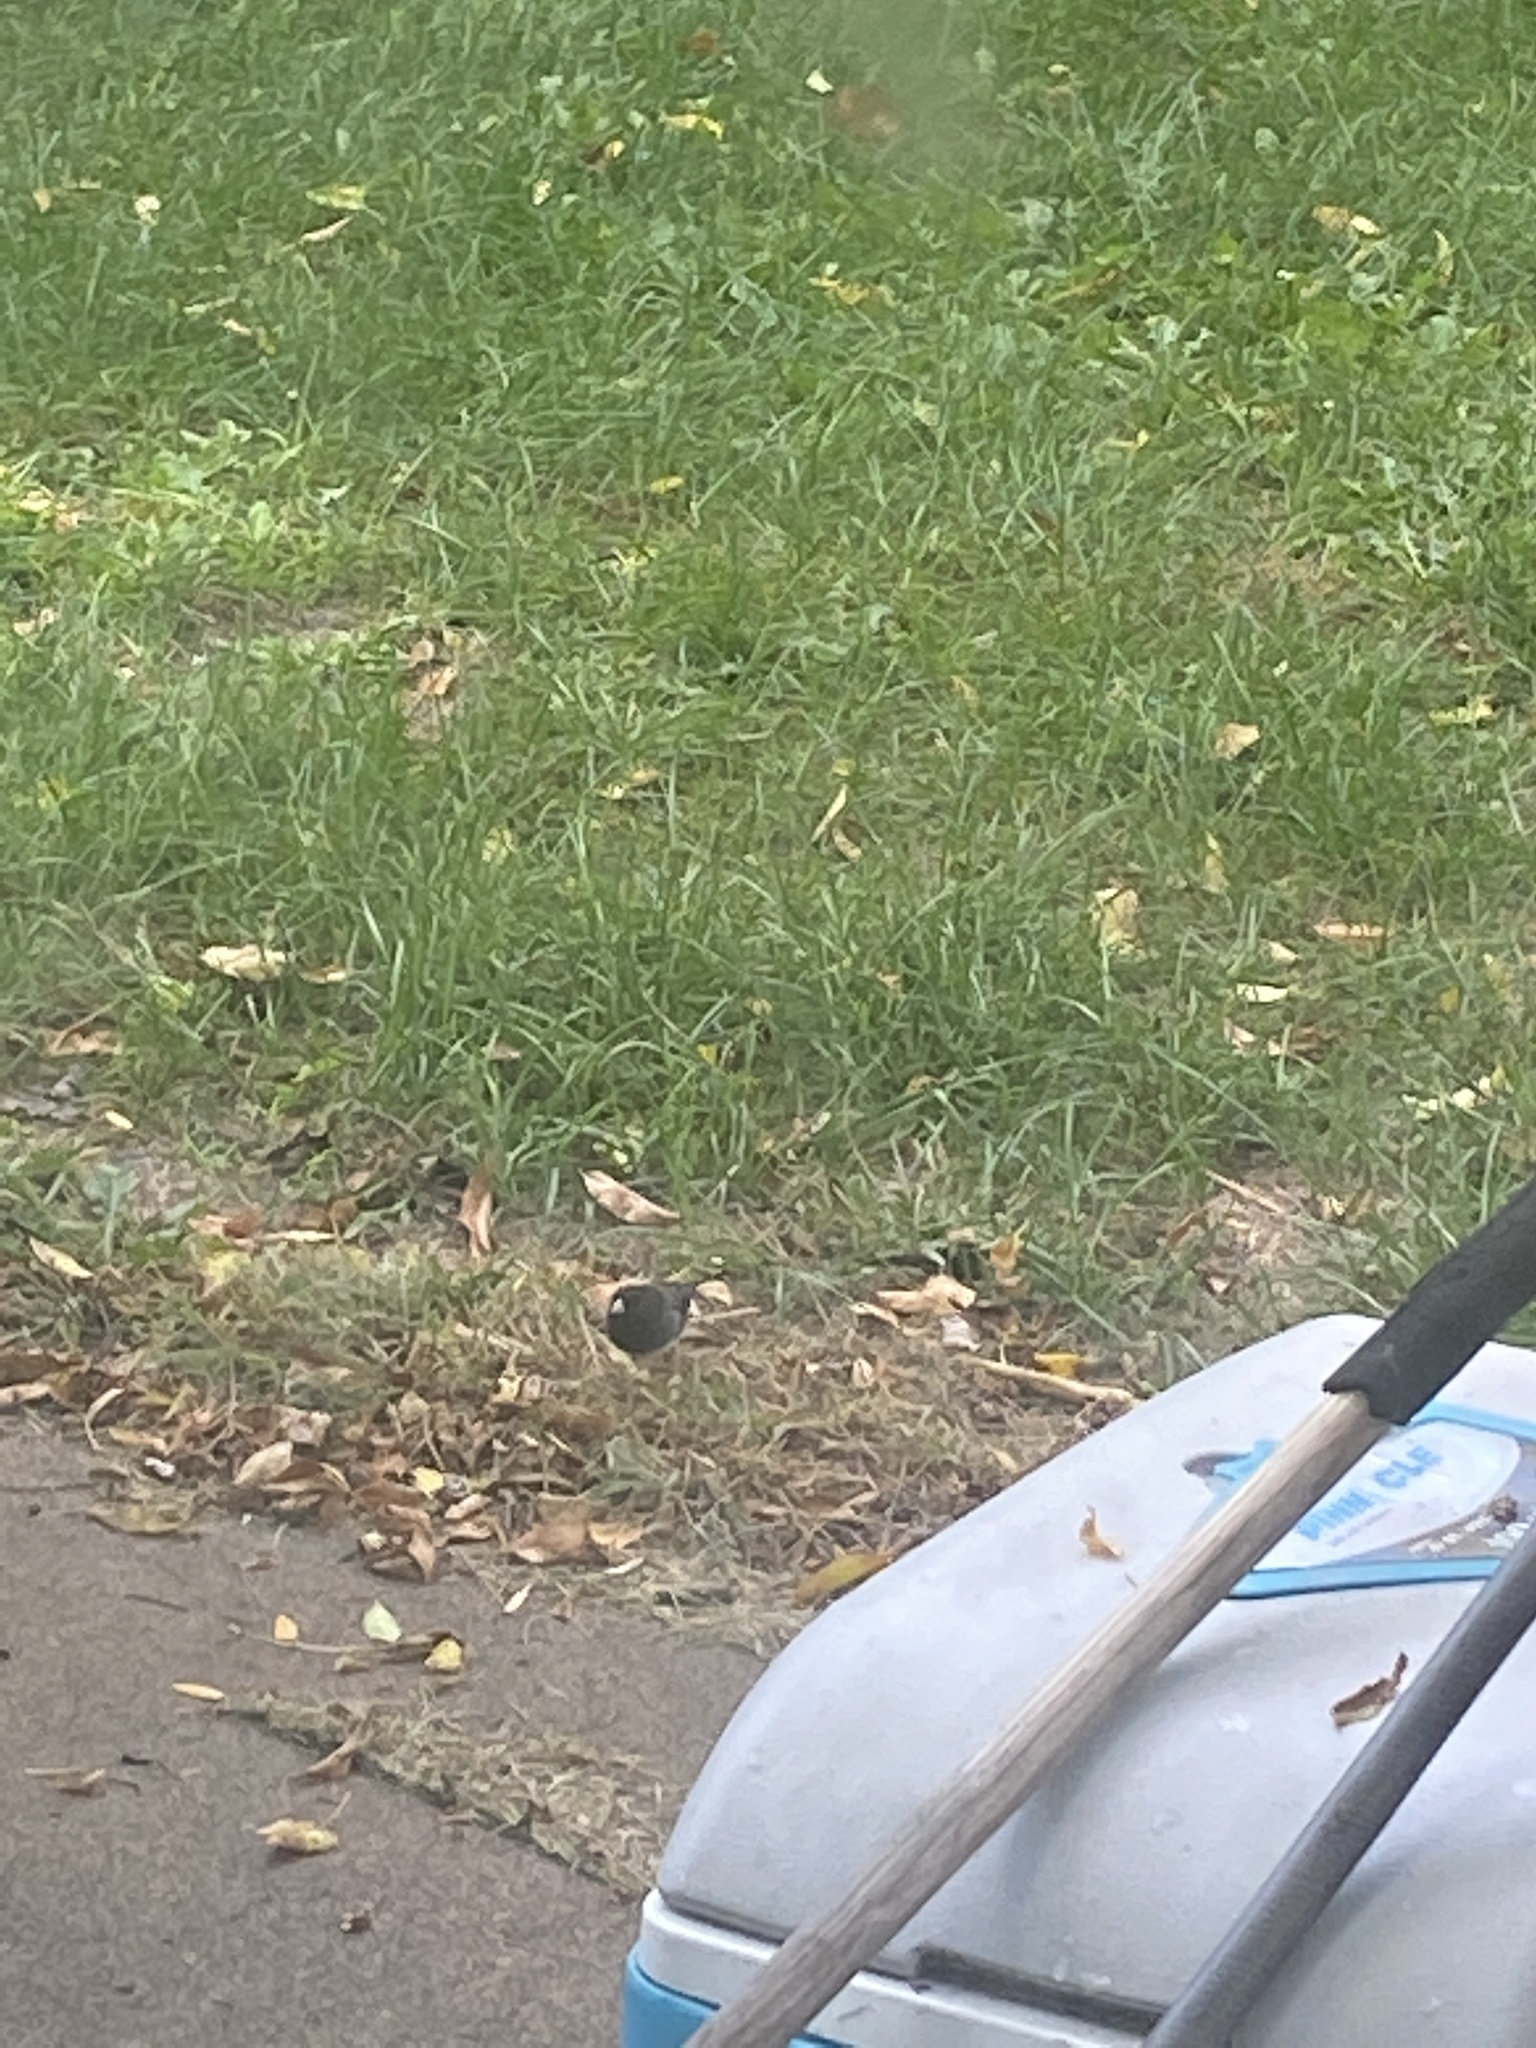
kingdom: Animalia
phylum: Chordata
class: Aves
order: Passeriformes
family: Passerellidae
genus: Junco
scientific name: Junco hyemalis
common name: Dark-eyed junco
